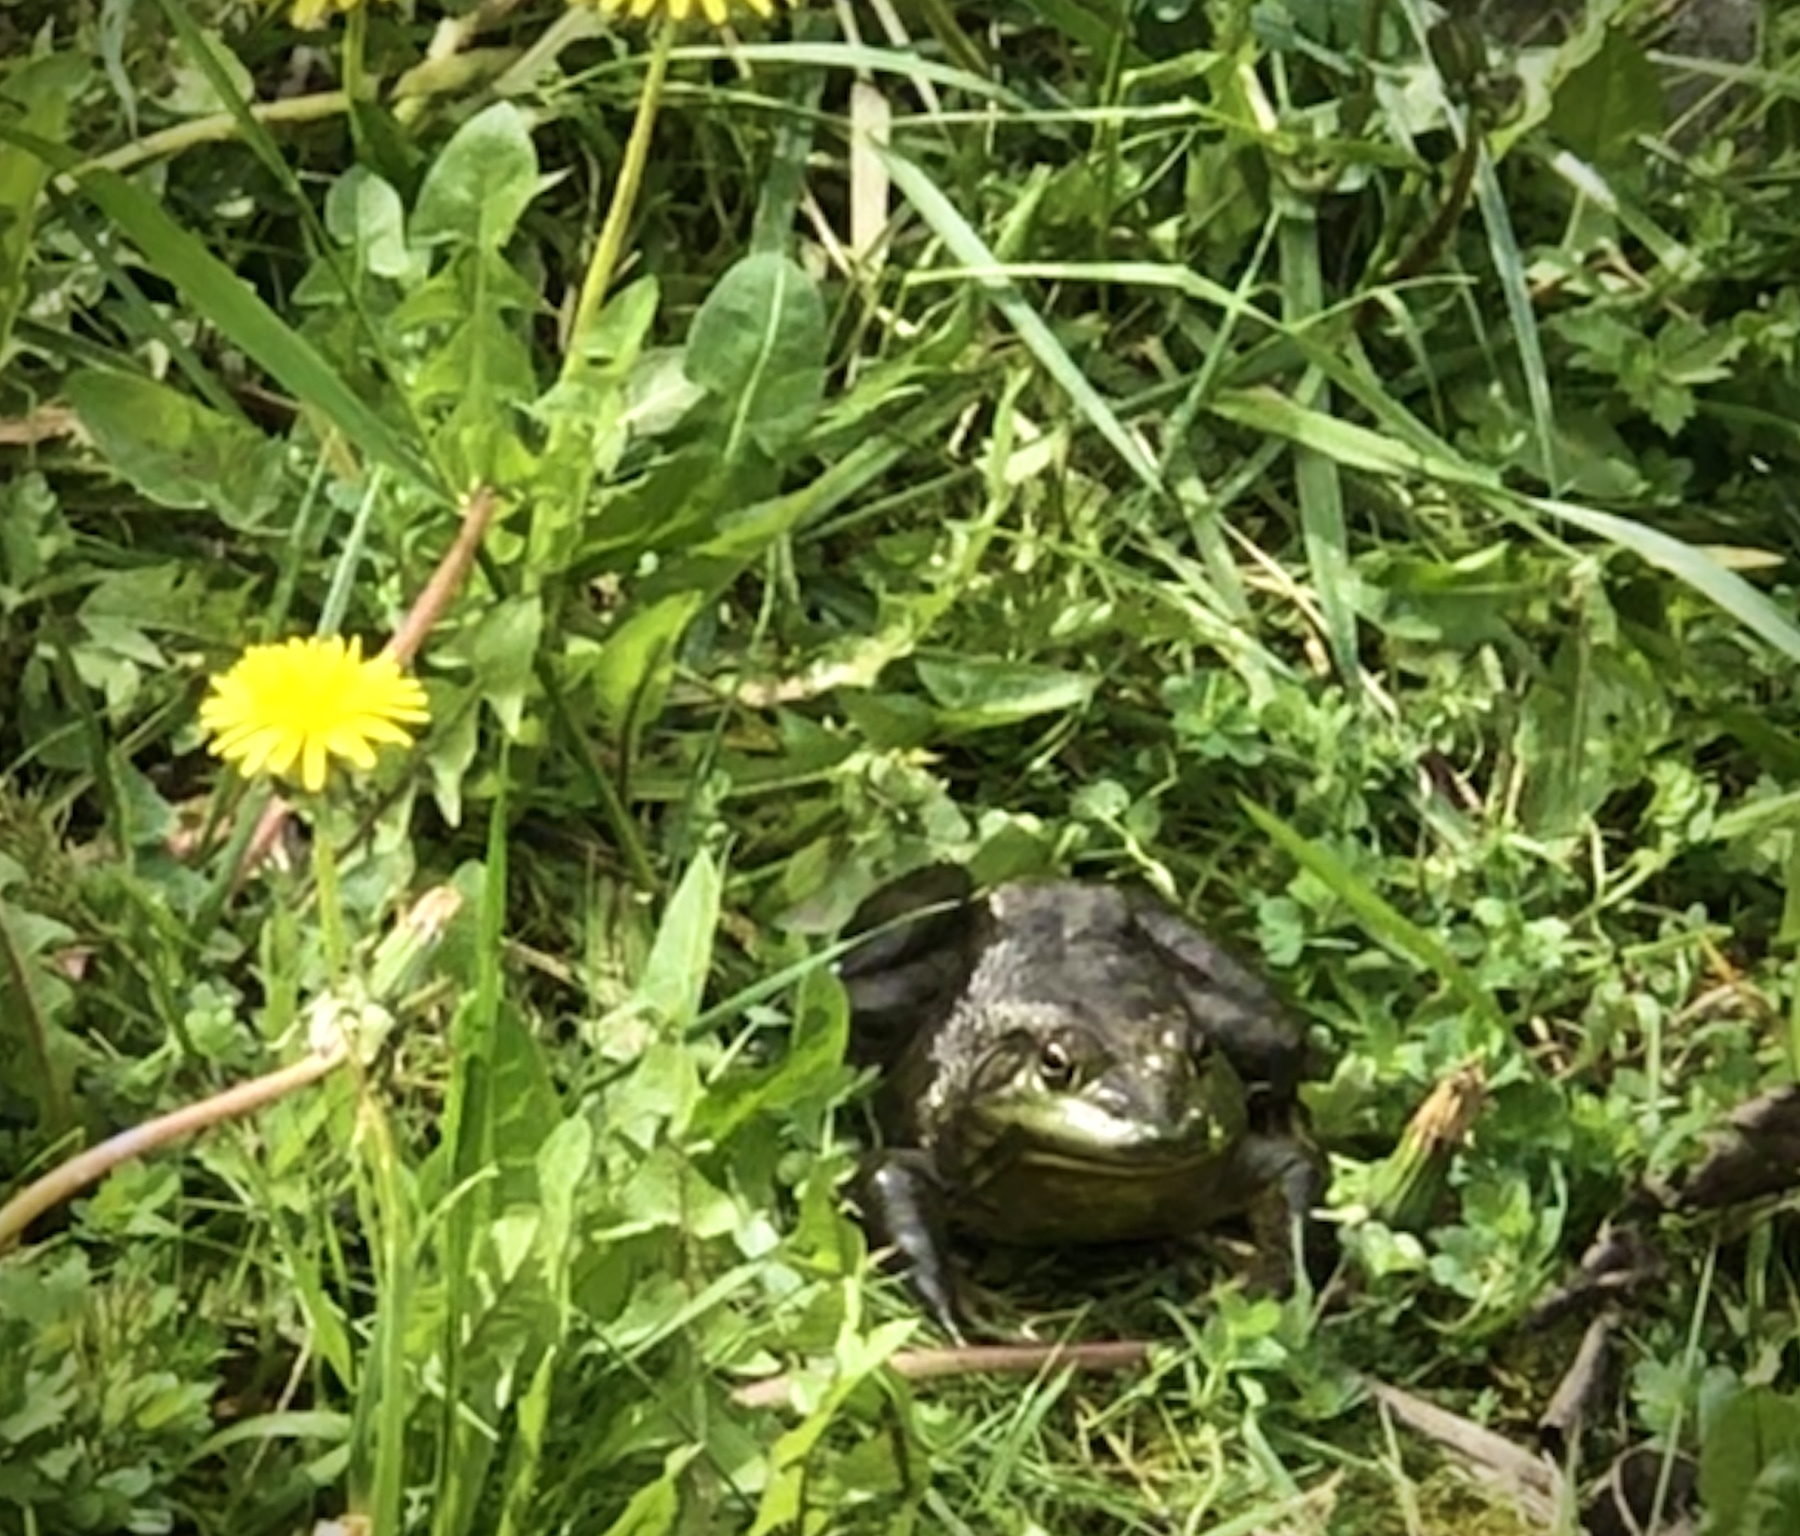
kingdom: Animalia
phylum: Chordata
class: Amphibia
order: Anura
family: Ranidae
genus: Lithobates
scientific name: Lithobates catesbeianus
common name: American bullfrog
